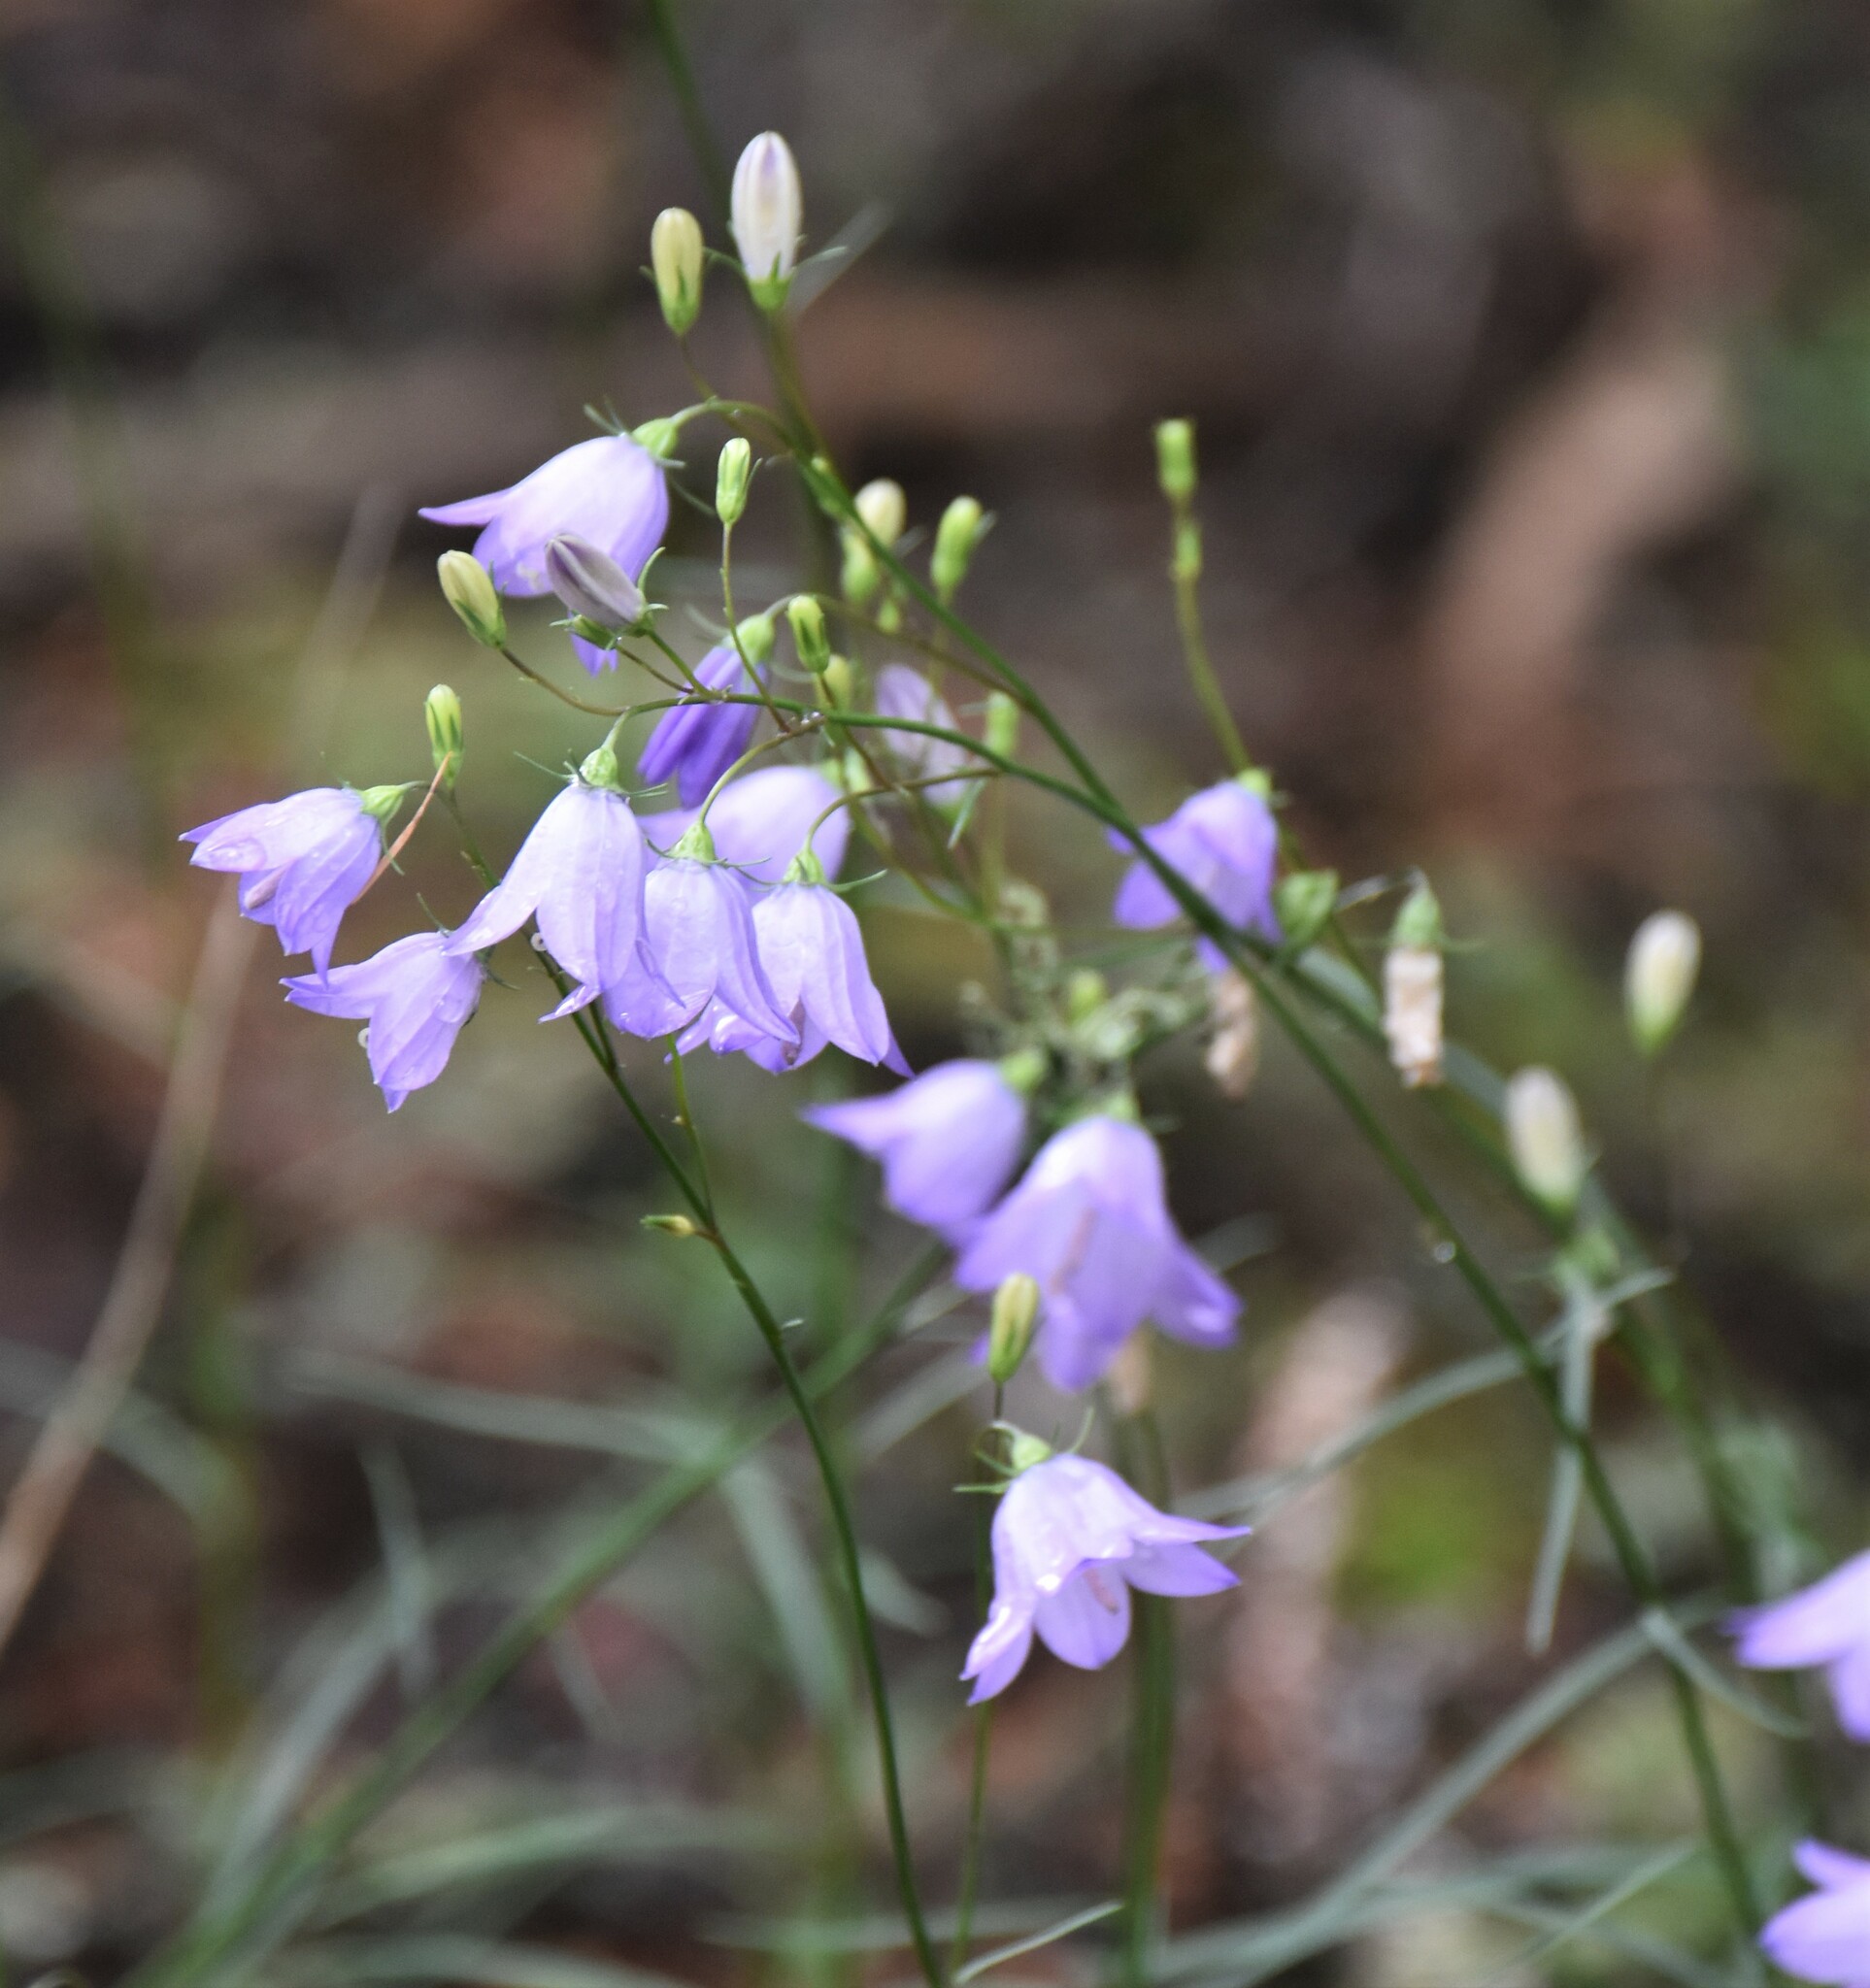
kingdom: Plantae
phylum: Tracheophyta
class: Magnoliopsida
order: Asterales
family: Campanulaceae
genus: Campanula
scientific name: Campanula alaskana
